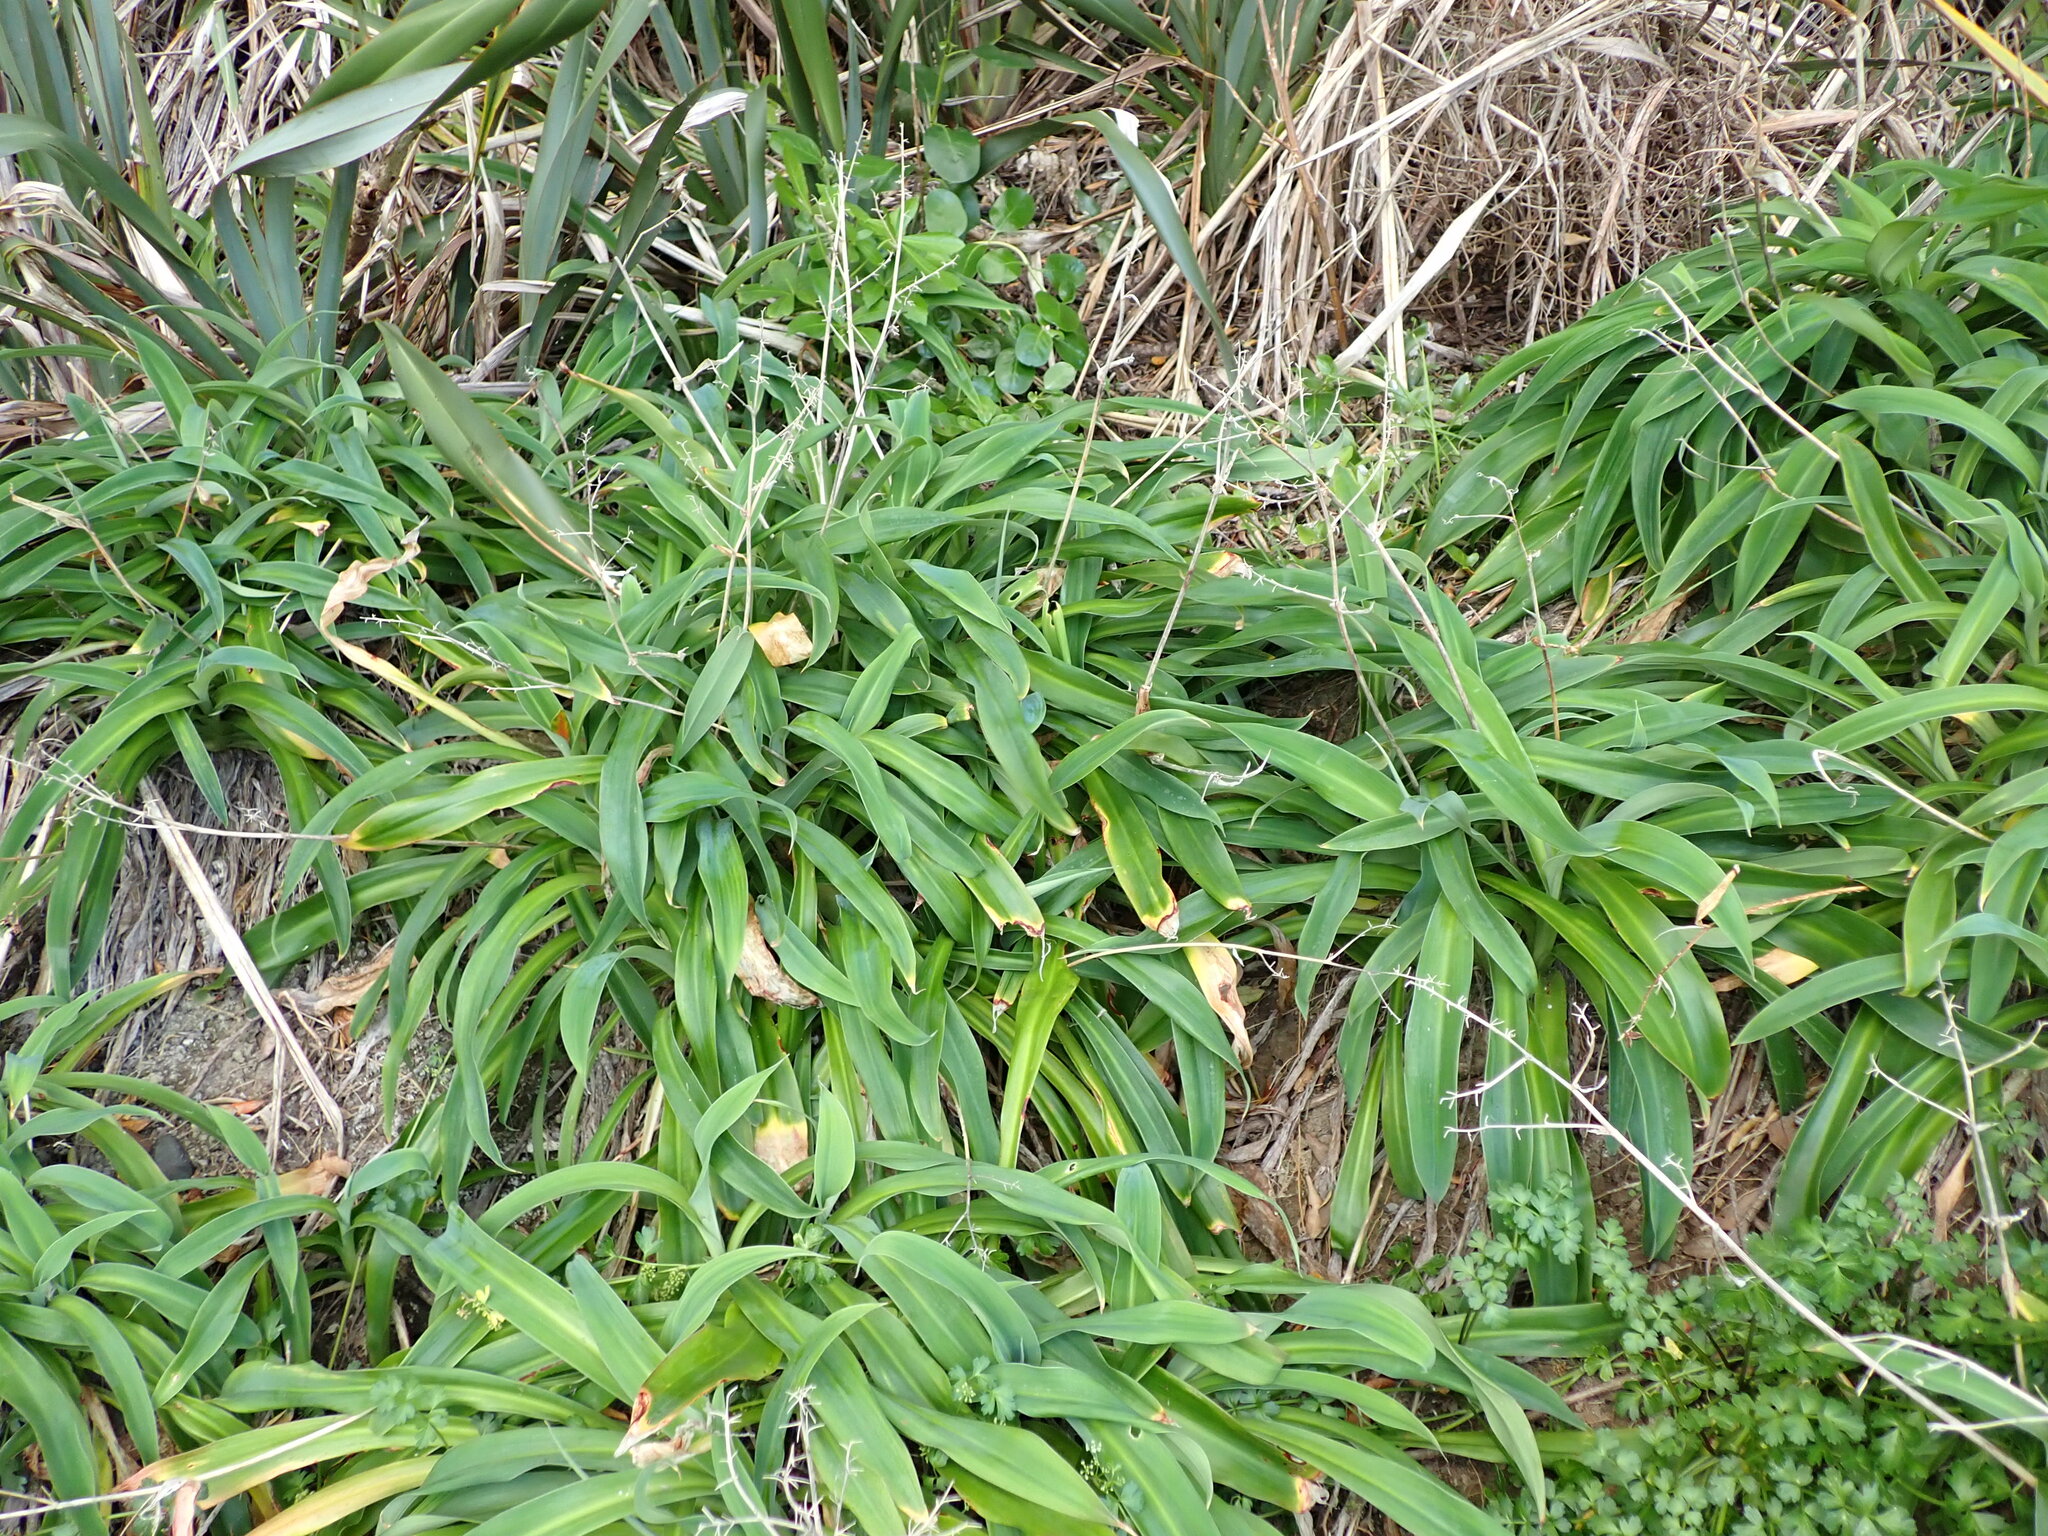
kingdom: Plantae
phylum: Tracheophyta
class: Liliopsida
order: Asparagales
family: Asparagaceae
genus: Arthropodium
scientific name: Arthropodium cirratum
